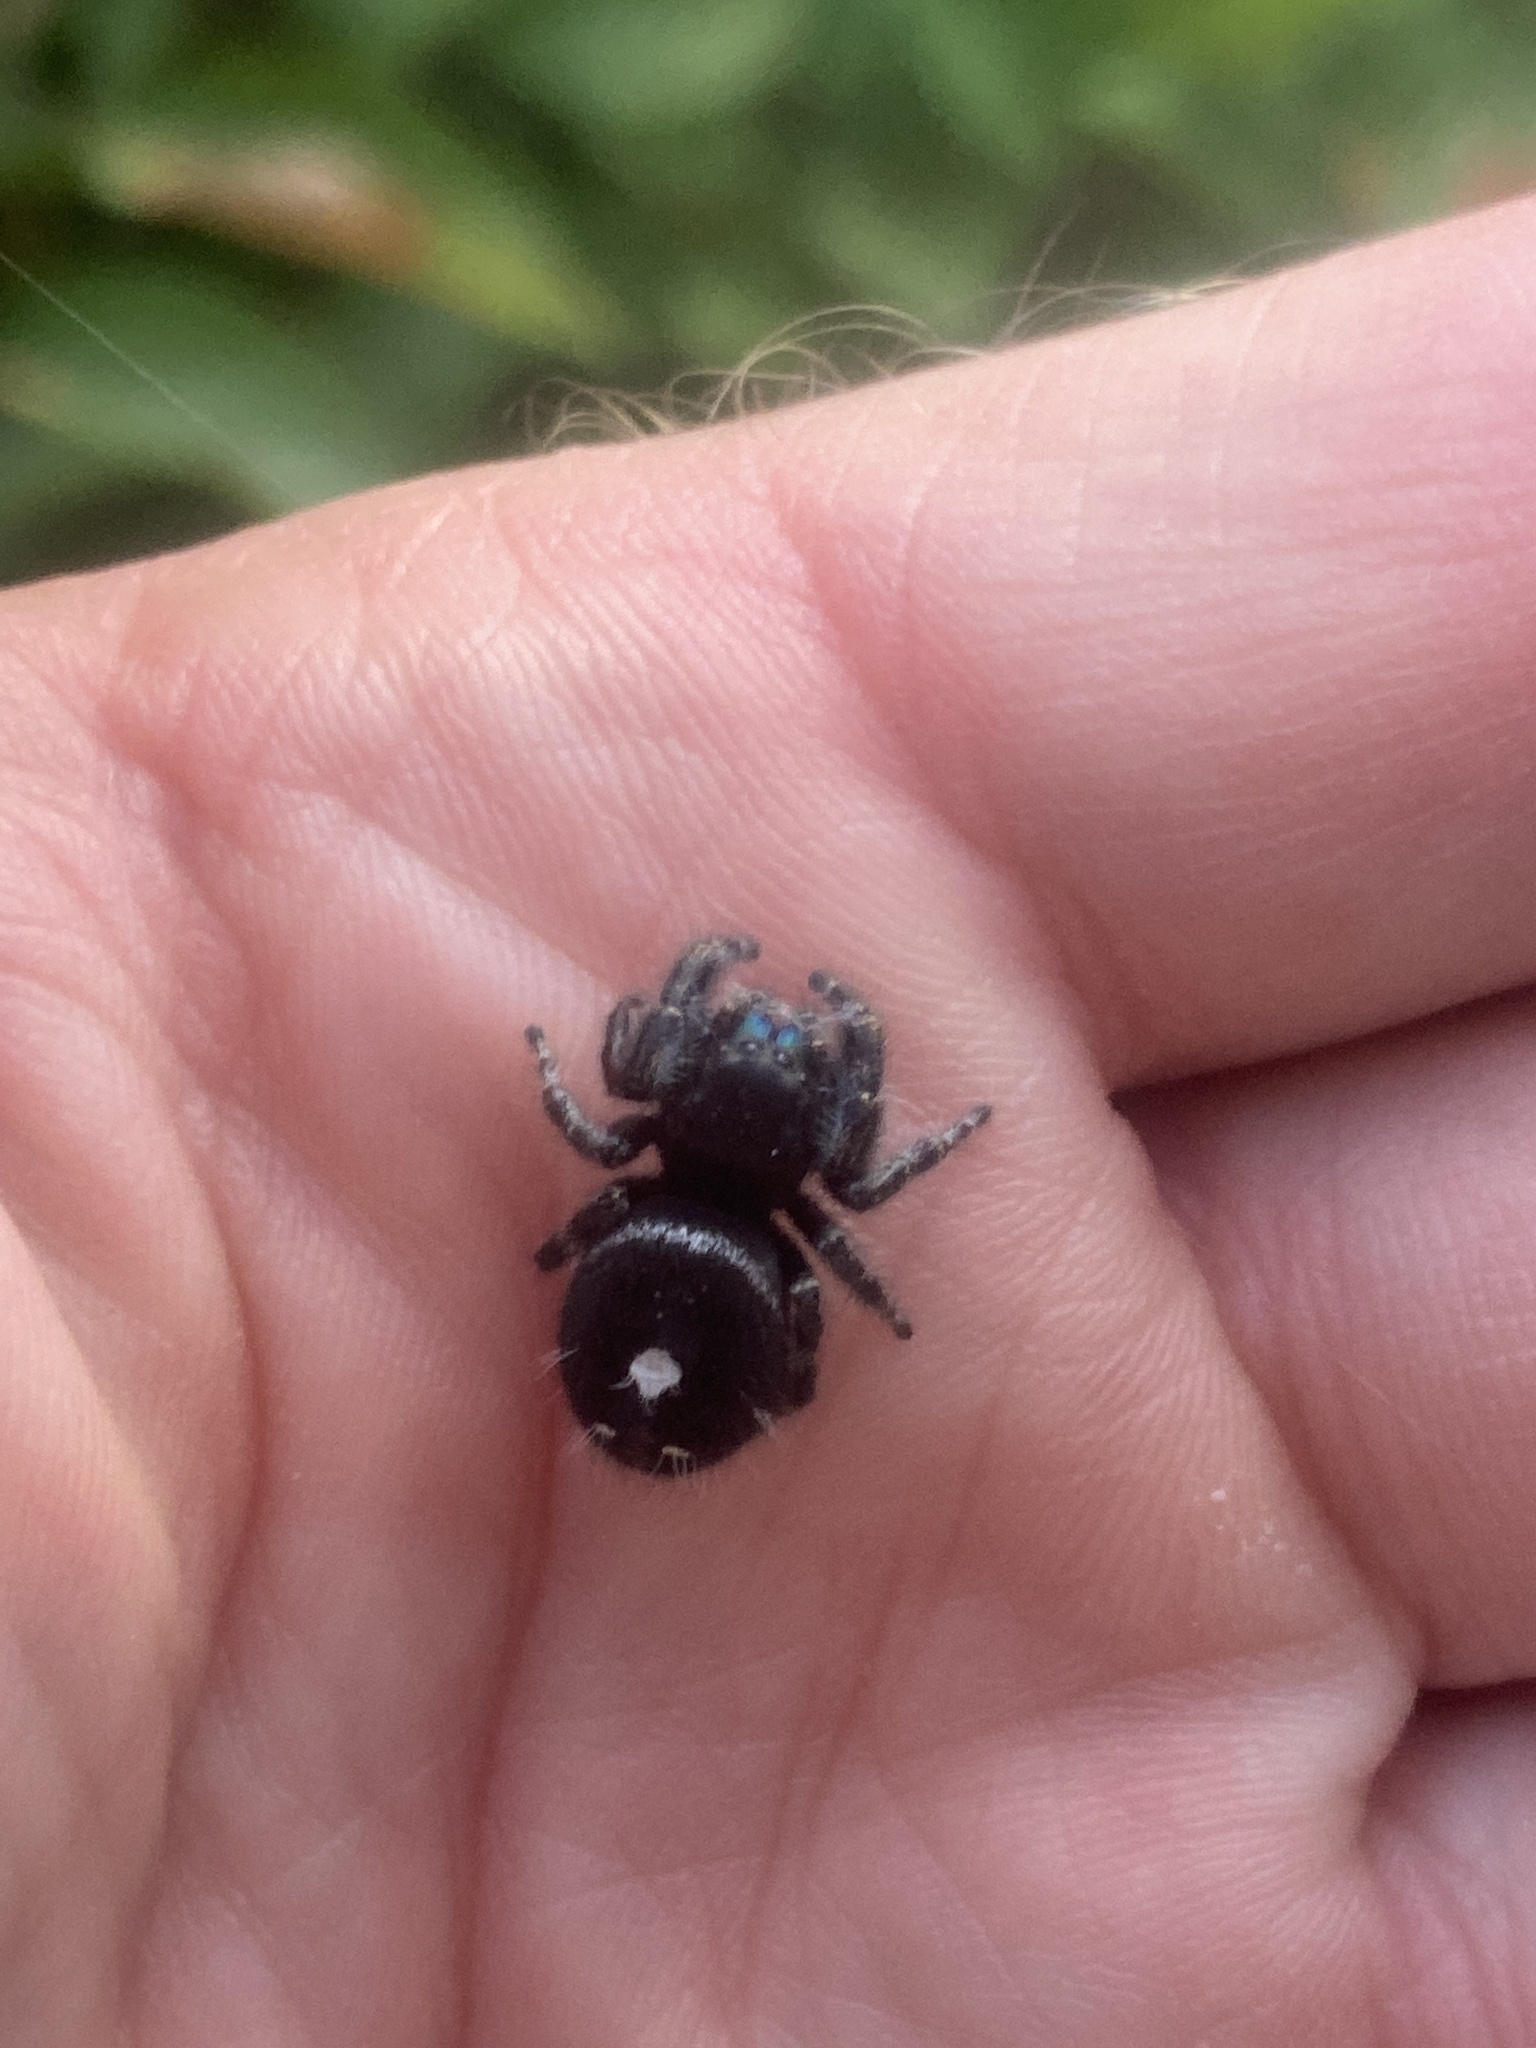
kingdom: Animalia
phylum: Arthropoda
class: Arachnida
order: Araneae
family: Salticidae
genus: Phidippus
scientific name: Phidippus audax
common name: Bold jumper
